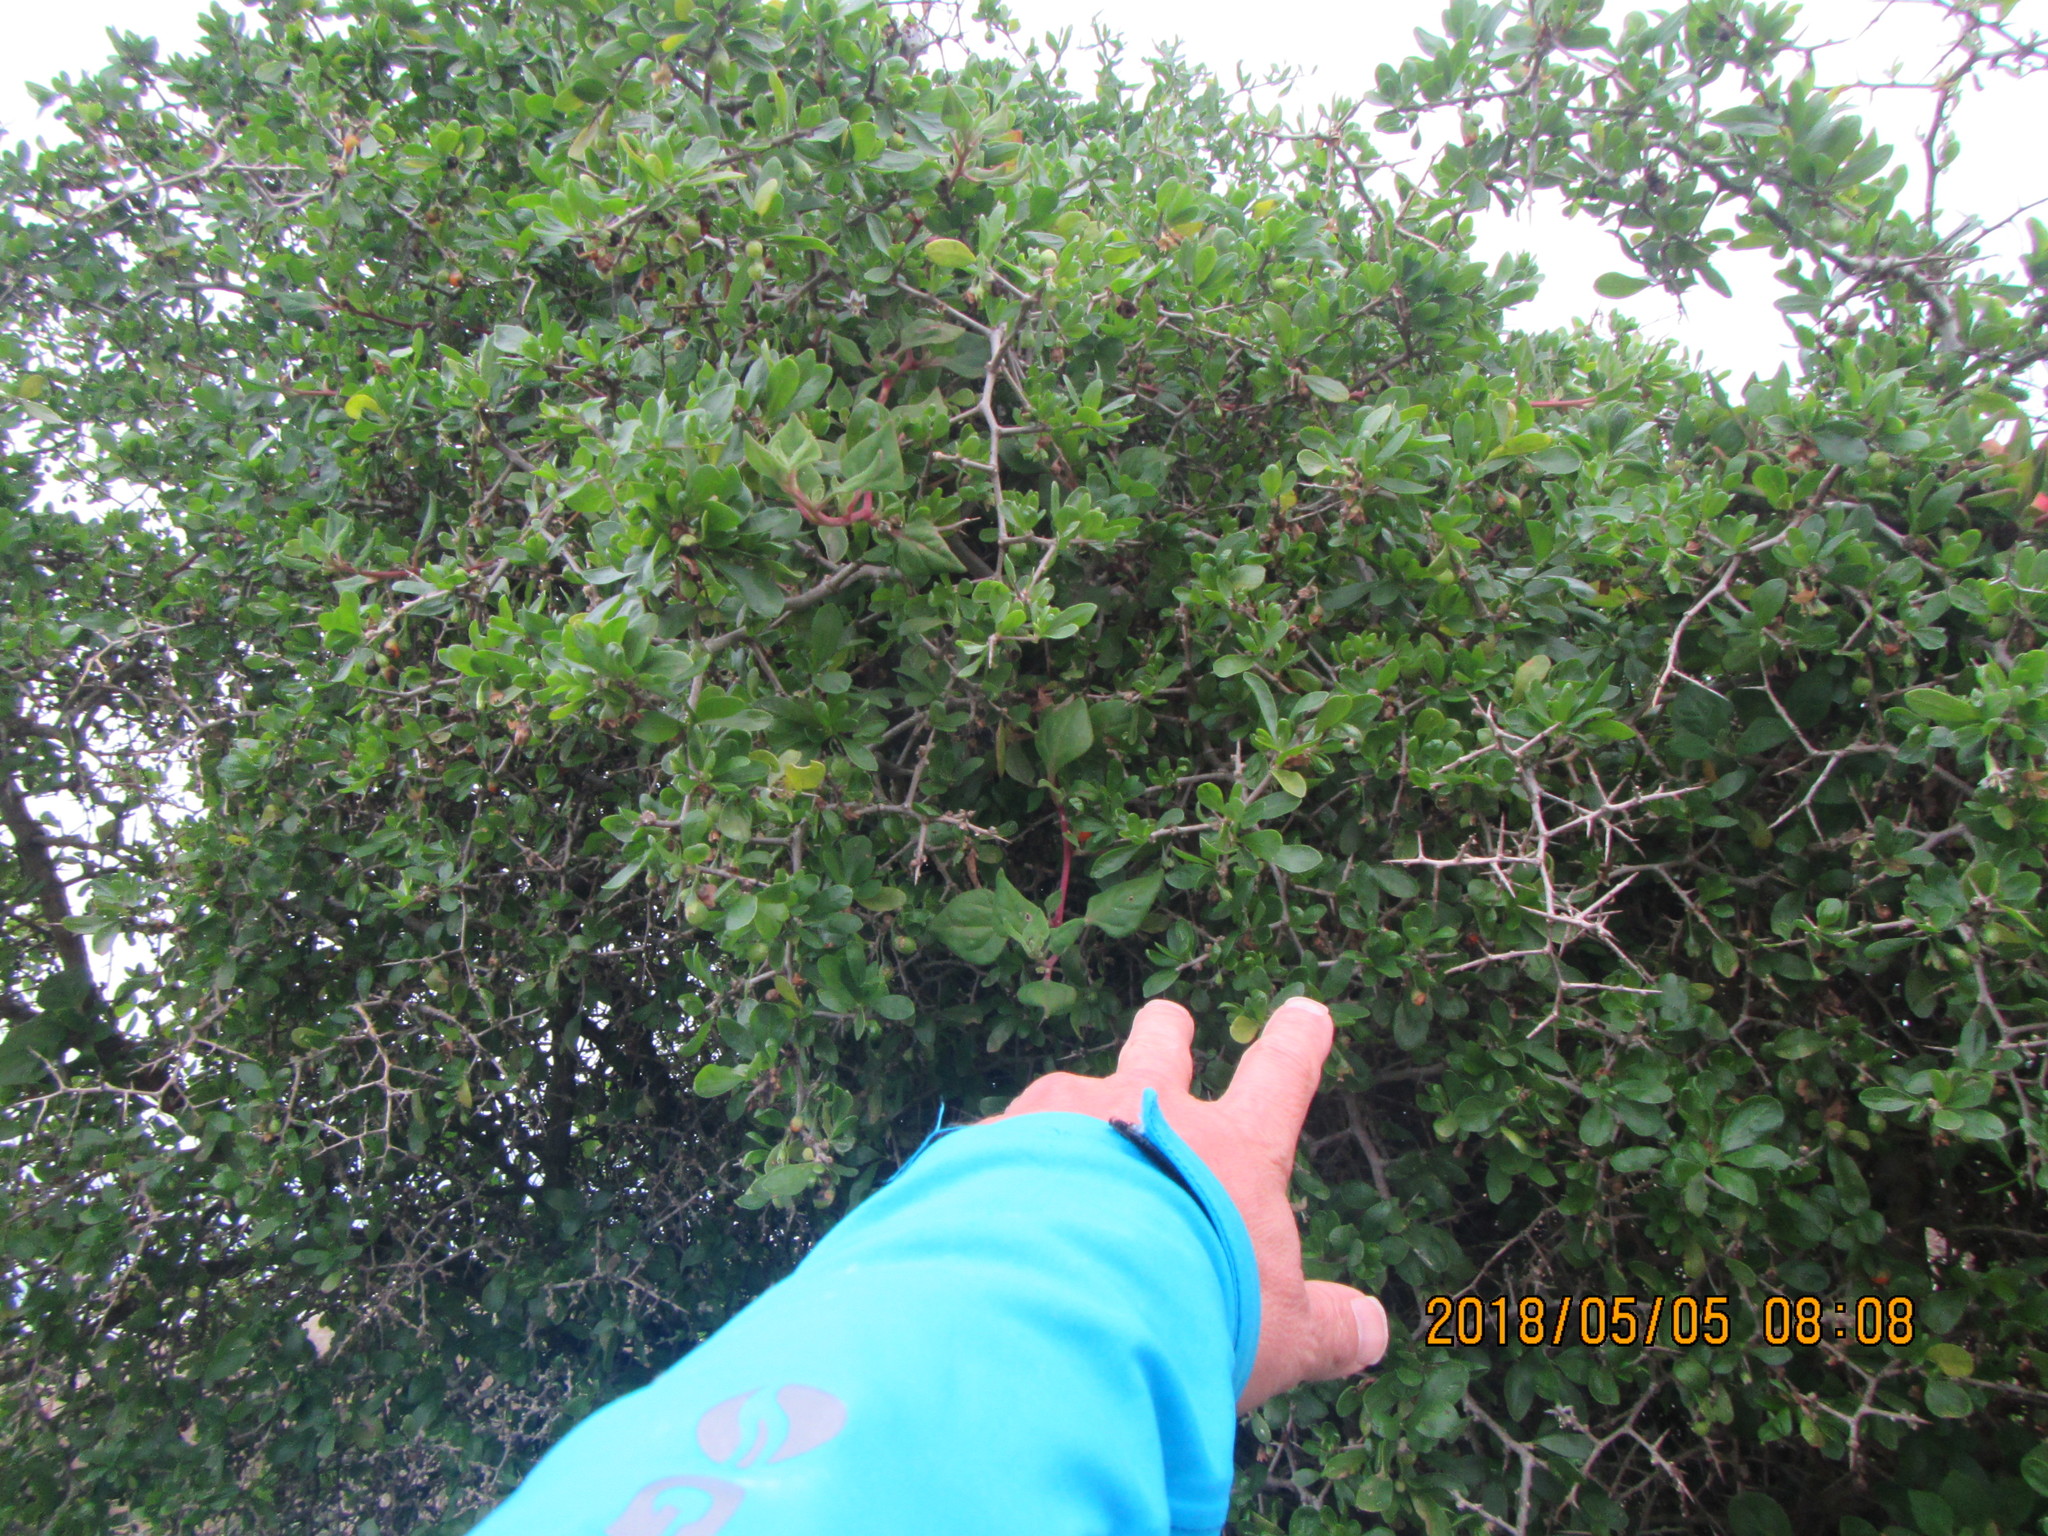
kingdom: Plantae
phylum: Tracheophyta
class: Magnoliopsida
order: Solanales
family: Solanaceae
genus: Lycium
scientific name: Lycium ferocissimum
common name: African boxthorn
